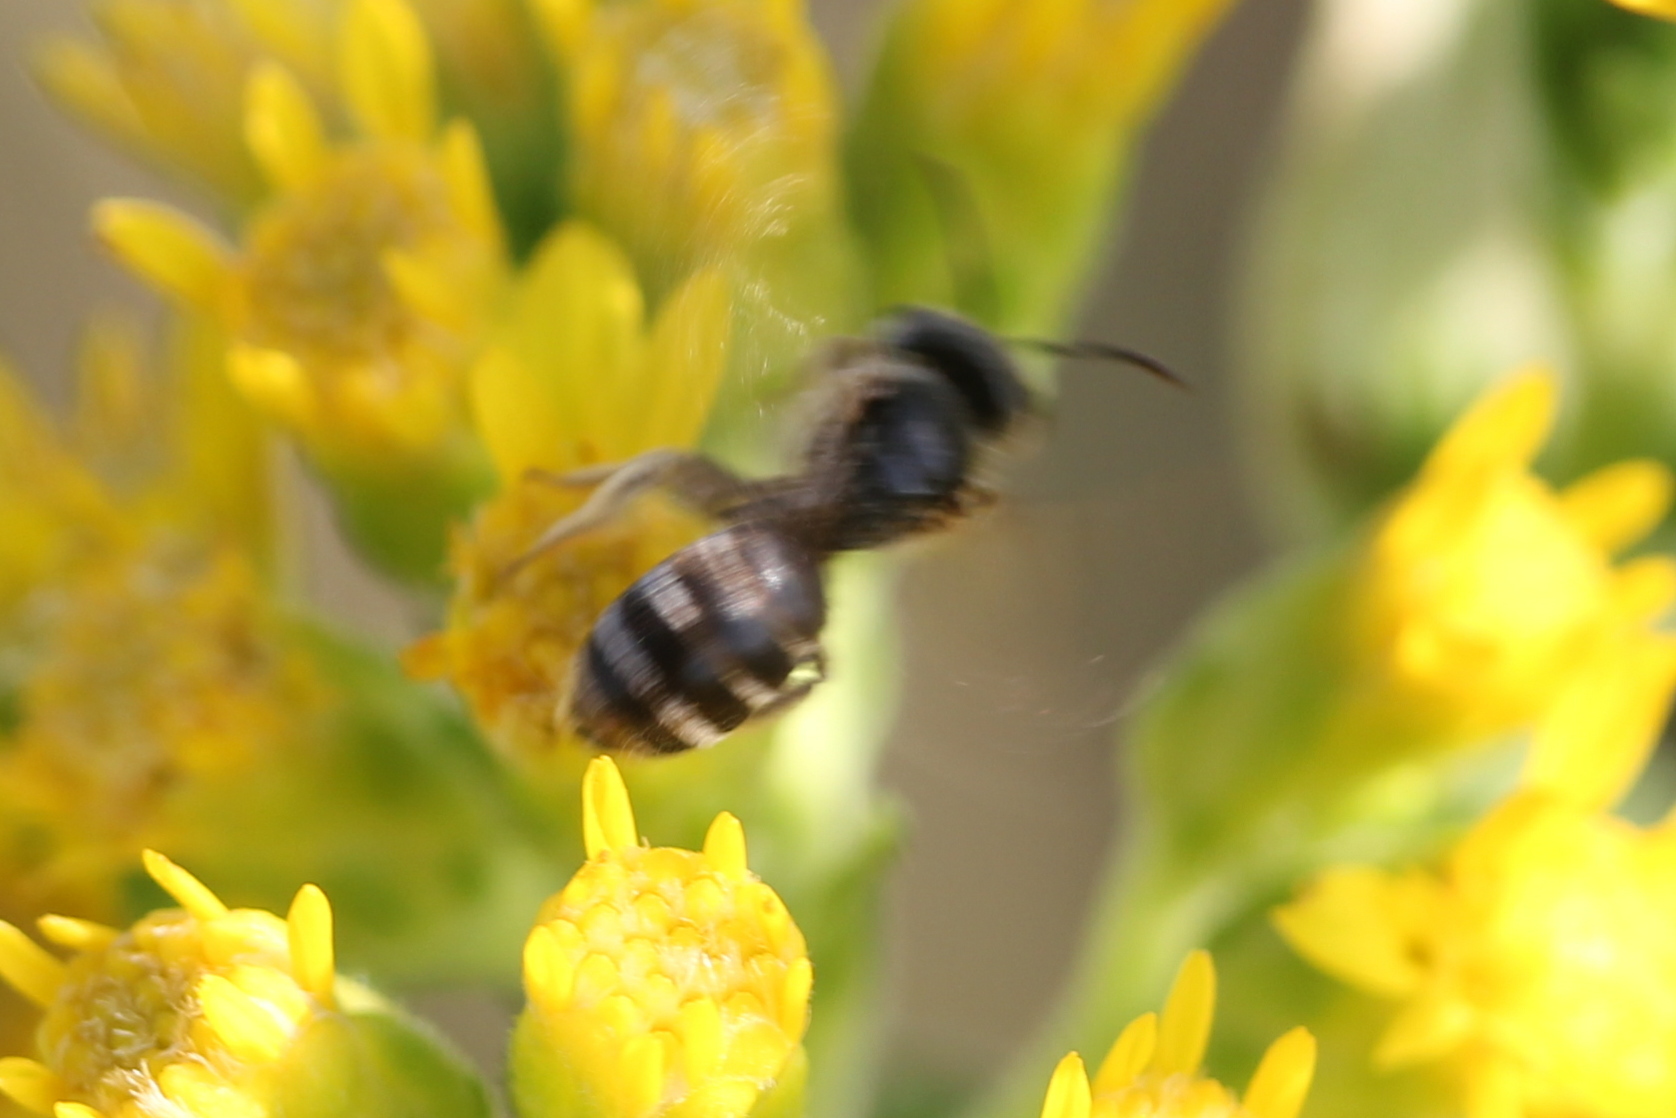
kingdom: Animalia
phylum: Arthropoda
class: Insecta
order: Hymenoptera
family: Halictidae
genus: Halictus
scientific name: Halictus ligatus
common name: Ligated furrow bee
